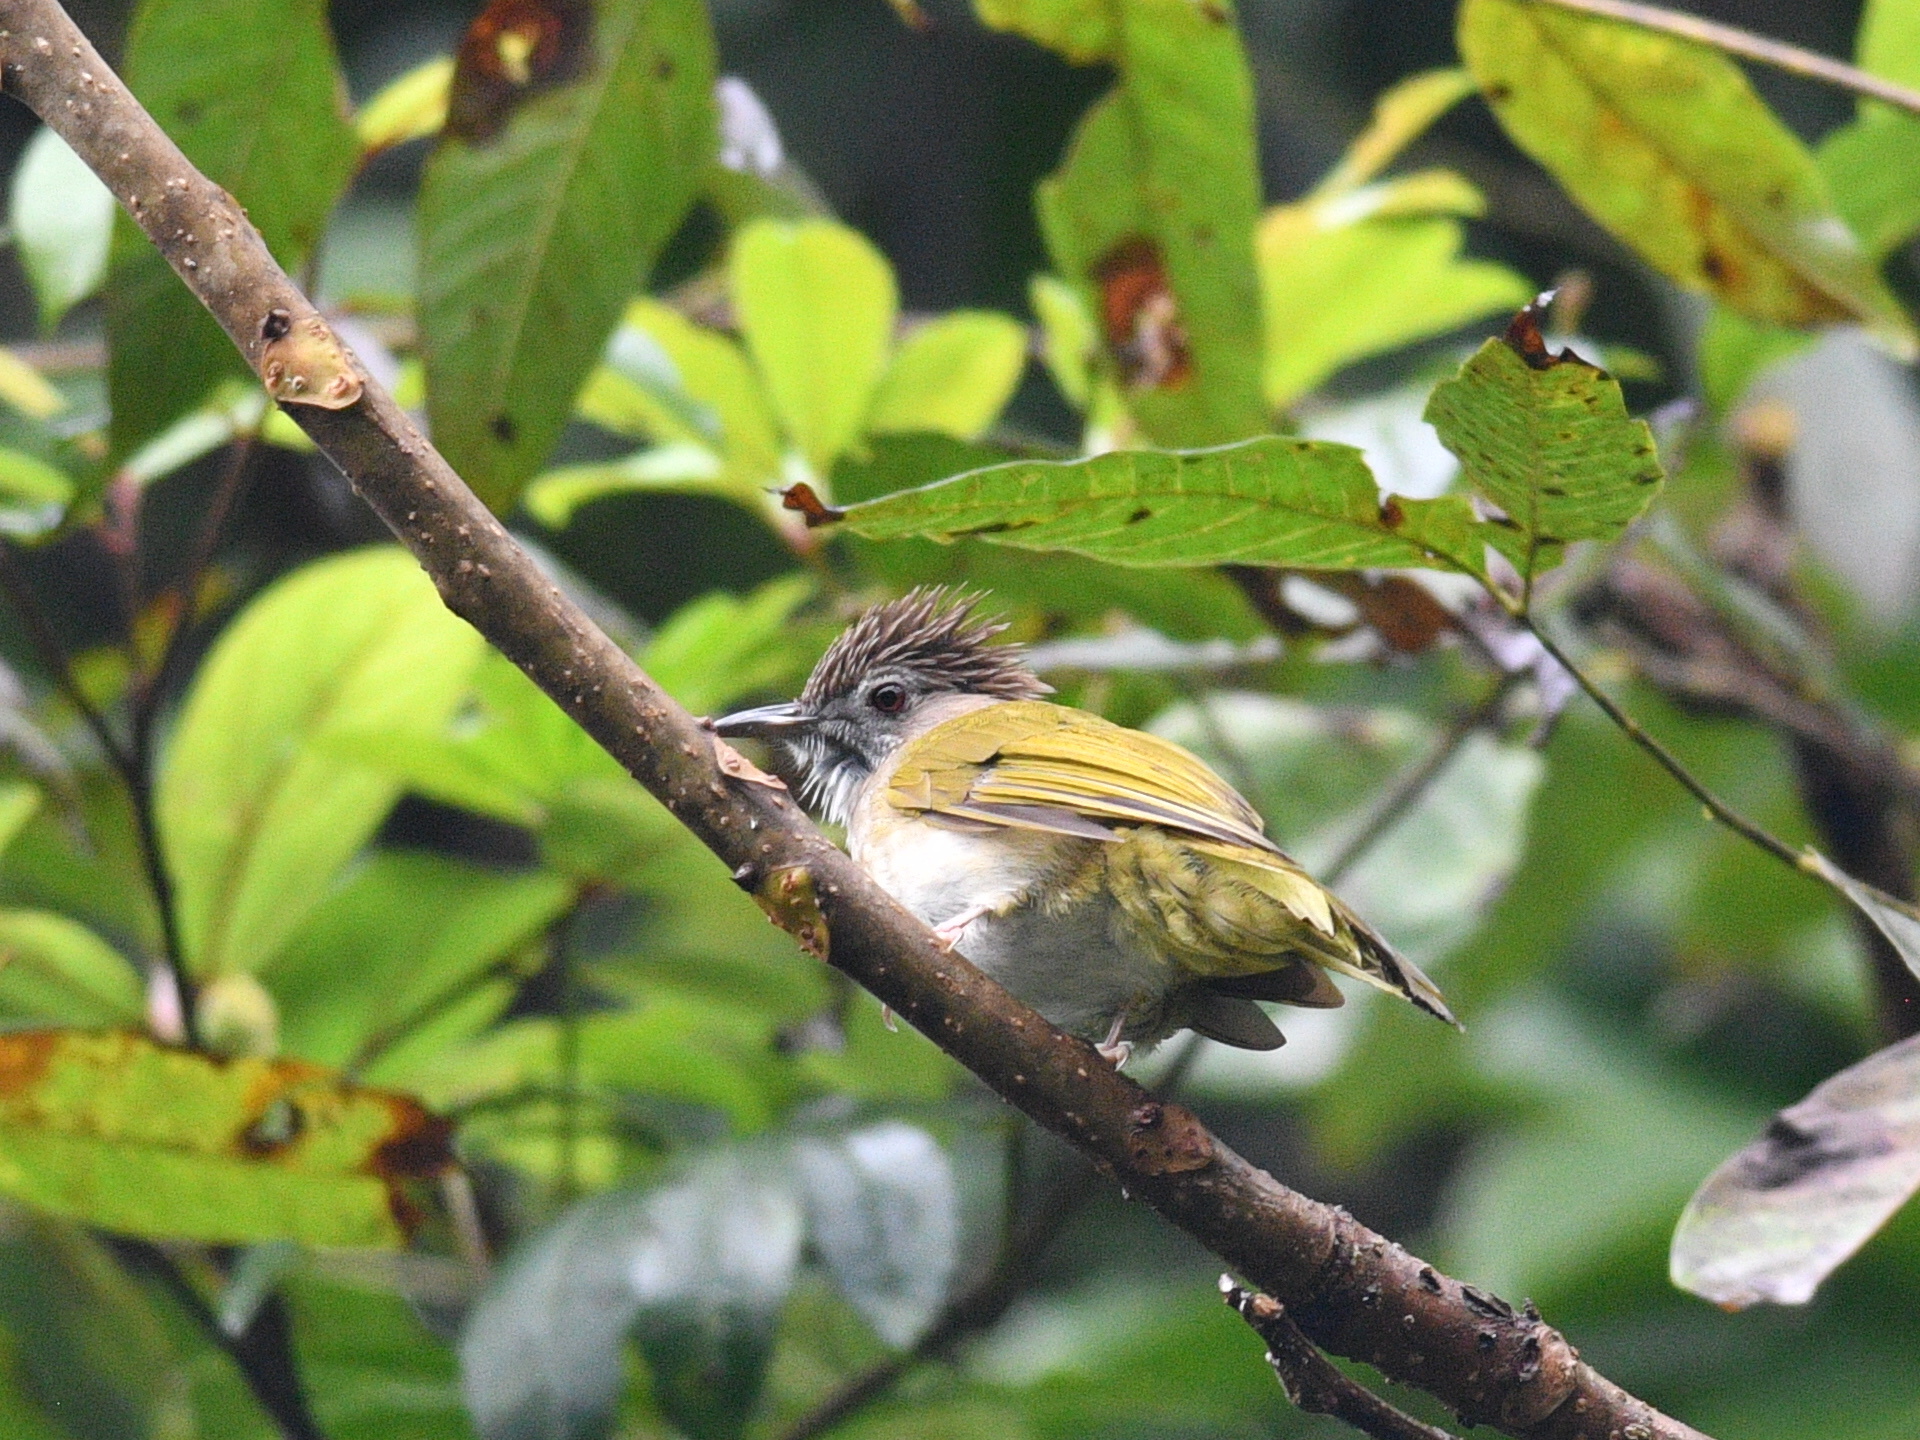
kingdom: Animalia
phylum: Chordata
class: Aves
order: Passeriformes
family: Pycnonotidae
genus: Ixos
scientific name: Ixos mcclellandii
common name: Mountain bulbul
